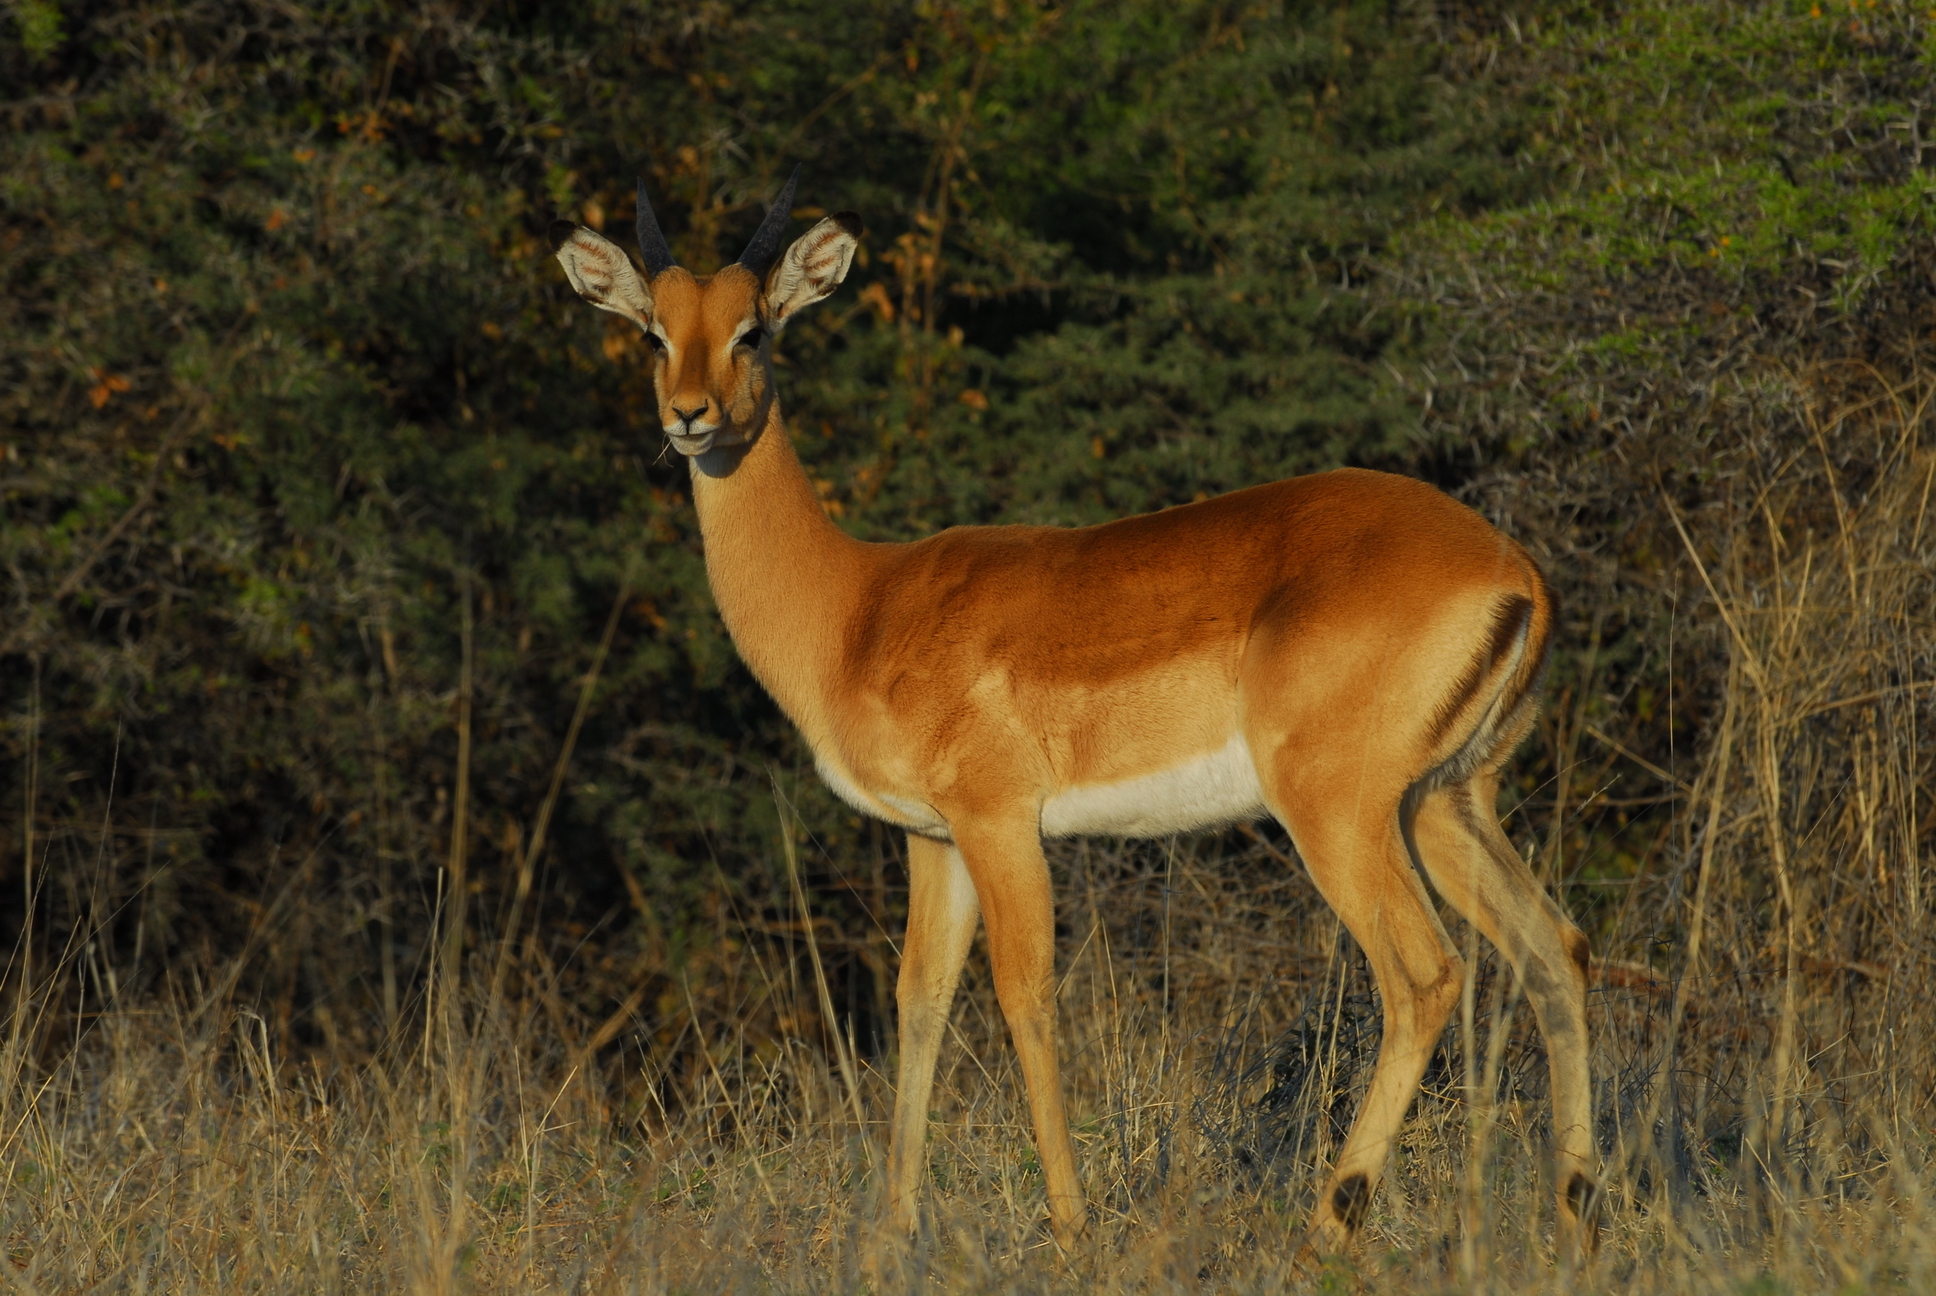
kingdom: Animalia
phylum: Chordata
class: Mammalia
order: Artiodactyla
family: Bovidae
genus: Aepyceros
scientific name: Aepyceros melampus
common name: Impala
